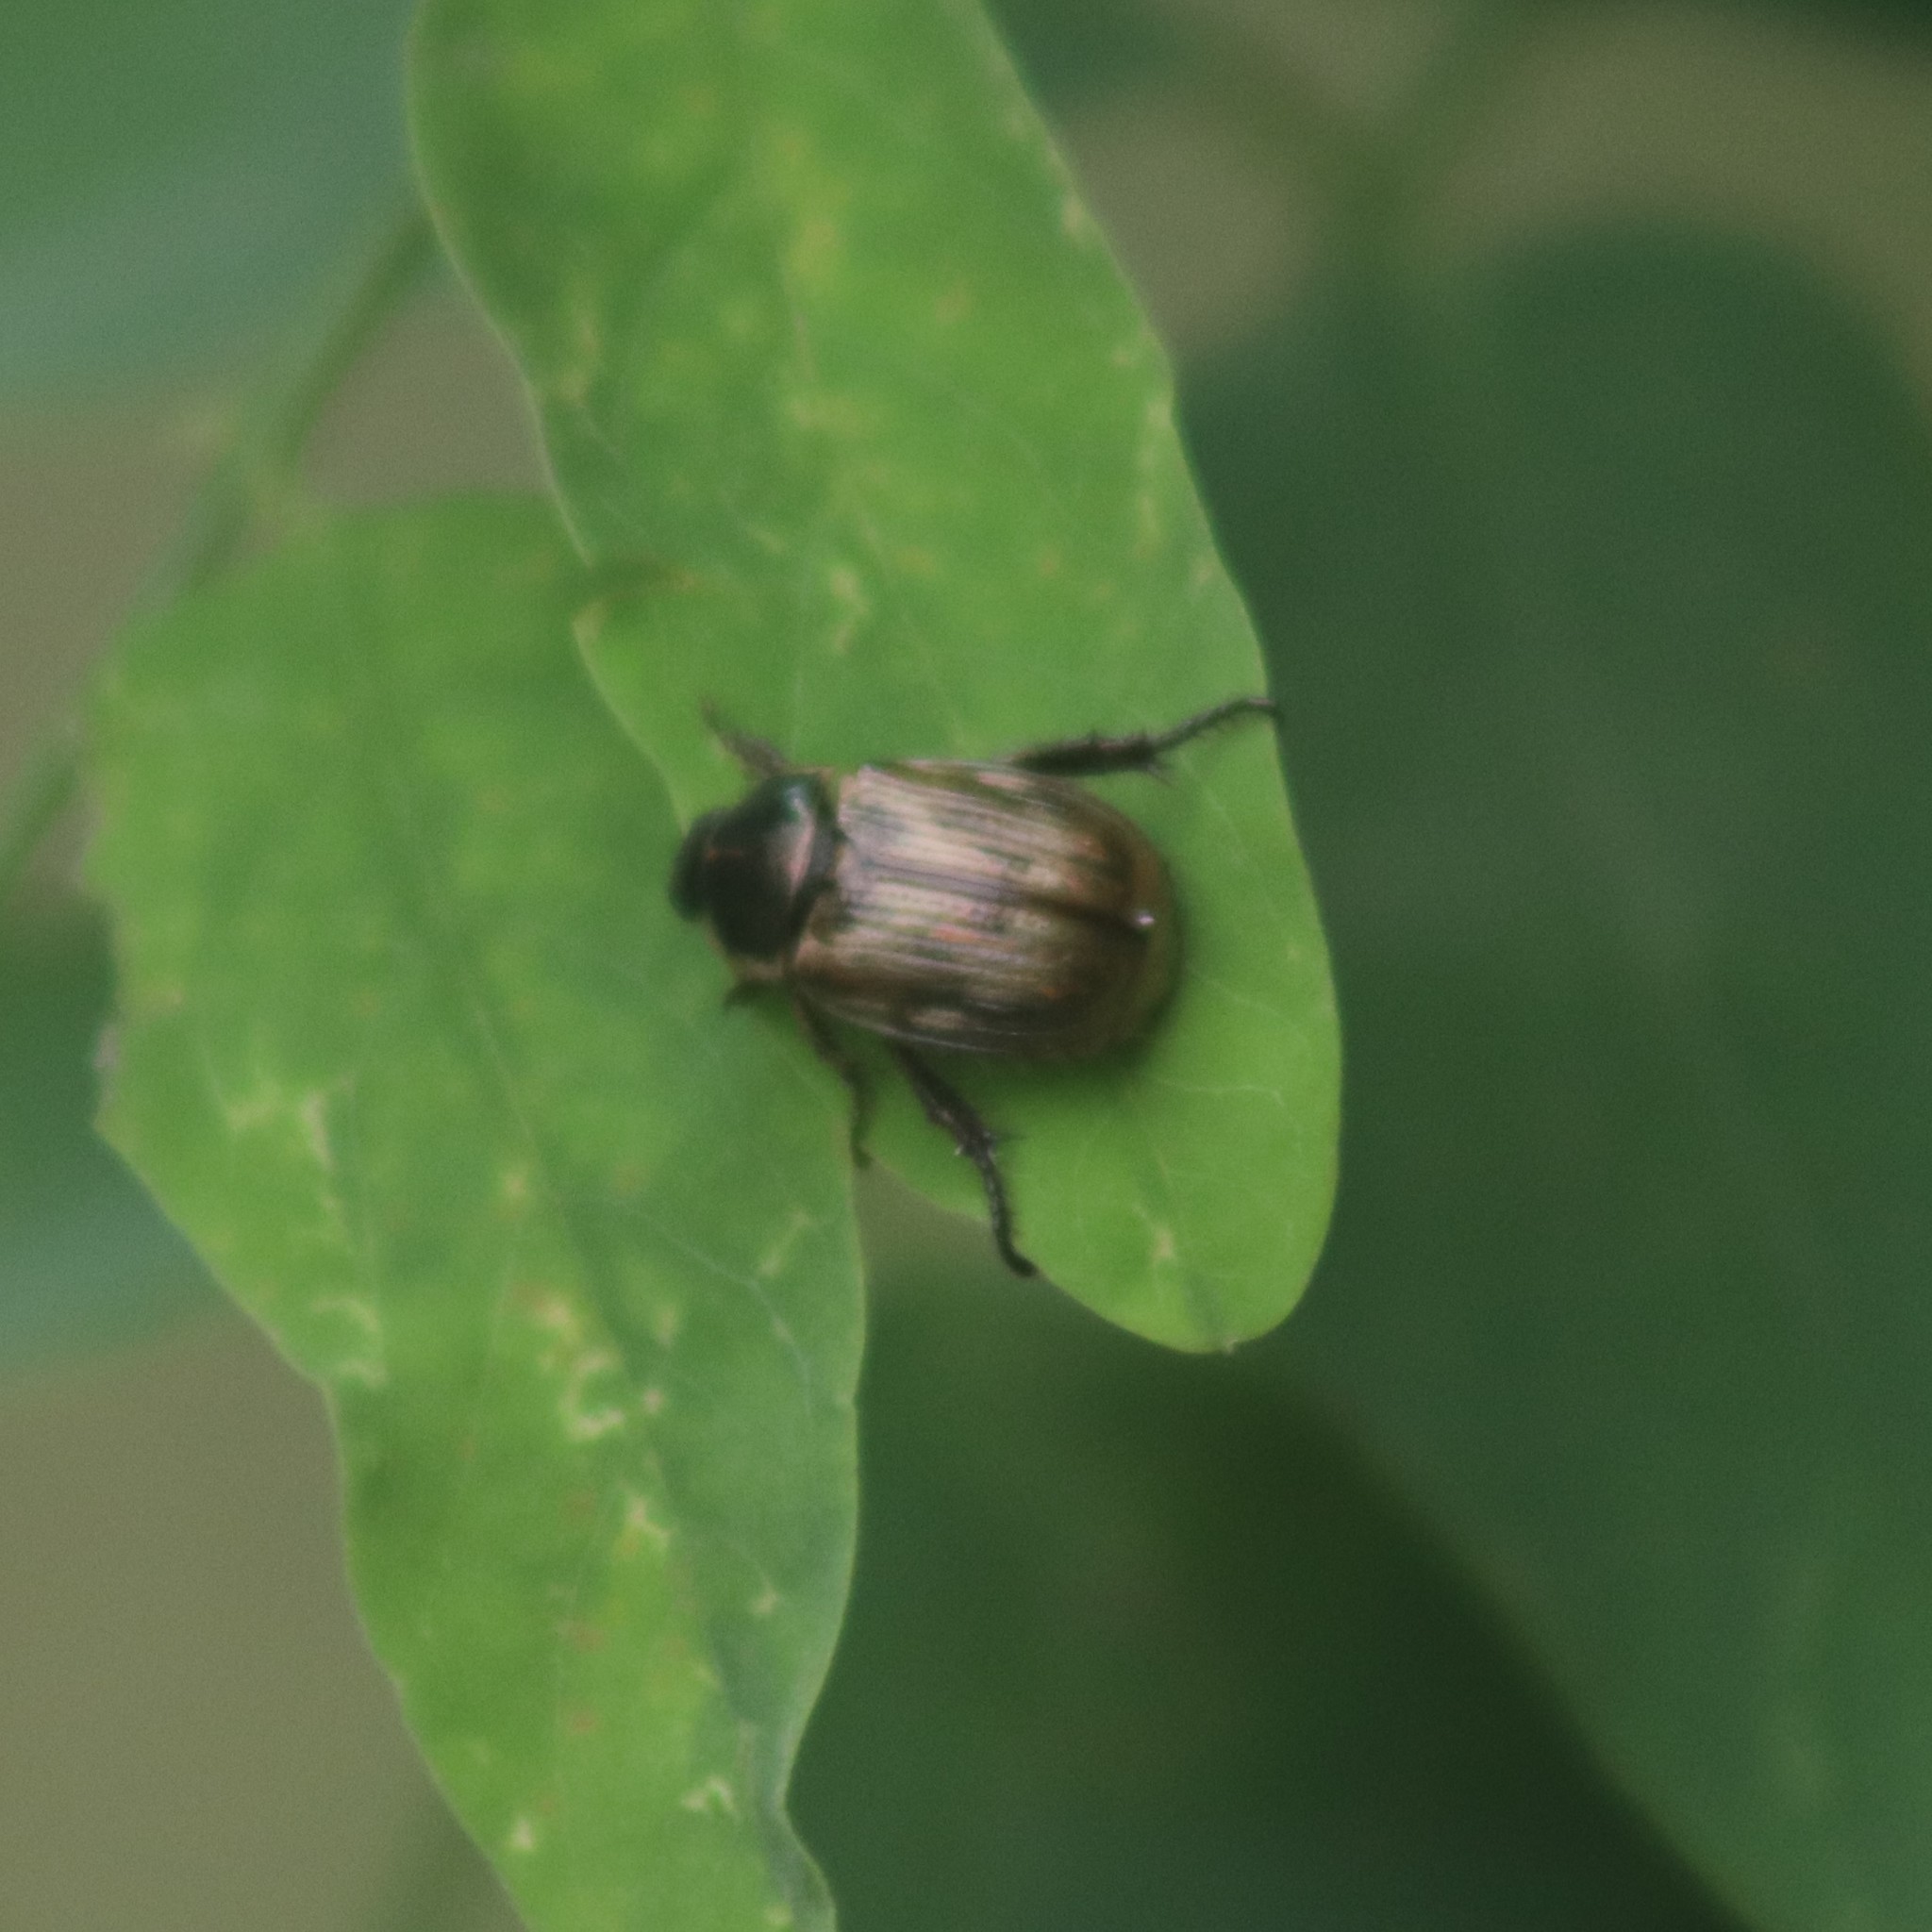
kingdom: Animalia
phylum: Arthropoda
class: Insecta
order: Coleoptera
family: Scarabaeidae
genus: Exomala
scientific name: Exomala orientalis
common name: Oriental beetle
